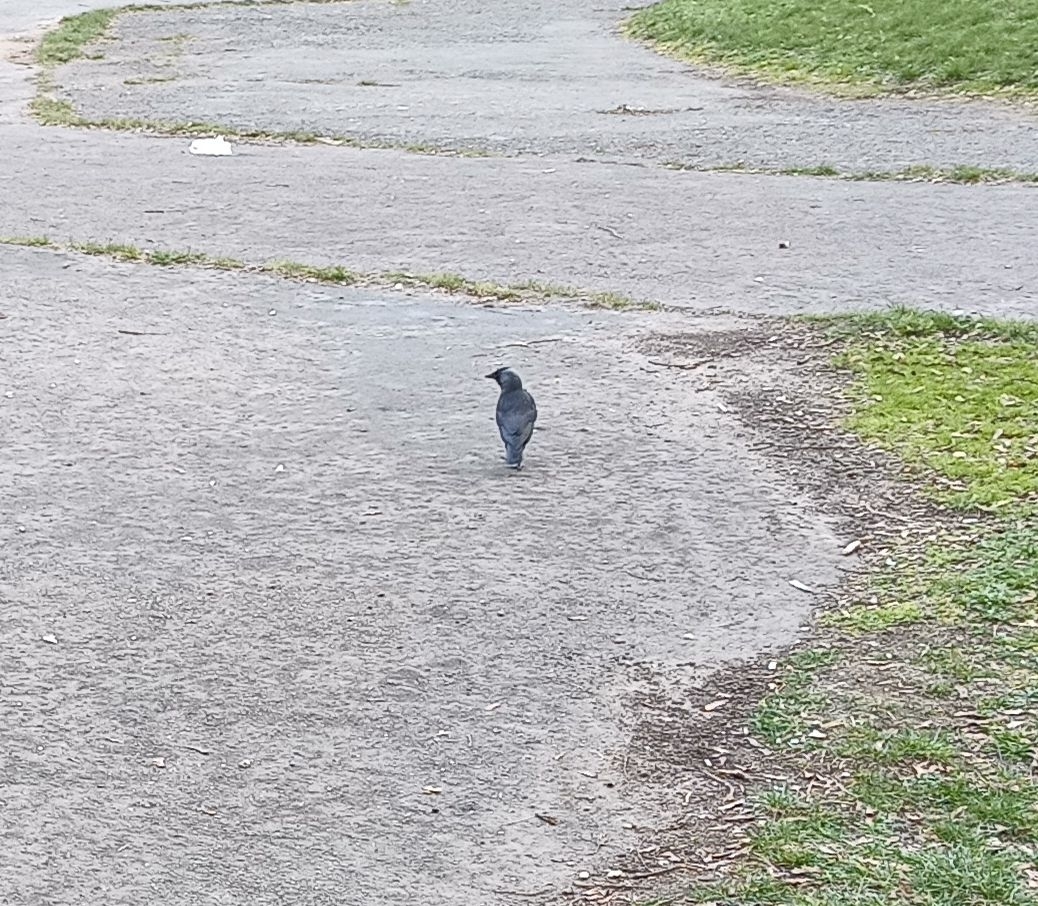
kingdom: Animalia
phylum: Chordata
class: Aves
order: Passeriformes
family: Corvidae
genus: Coloeus
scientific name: Coloeus monedula
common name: Western jackdaw
